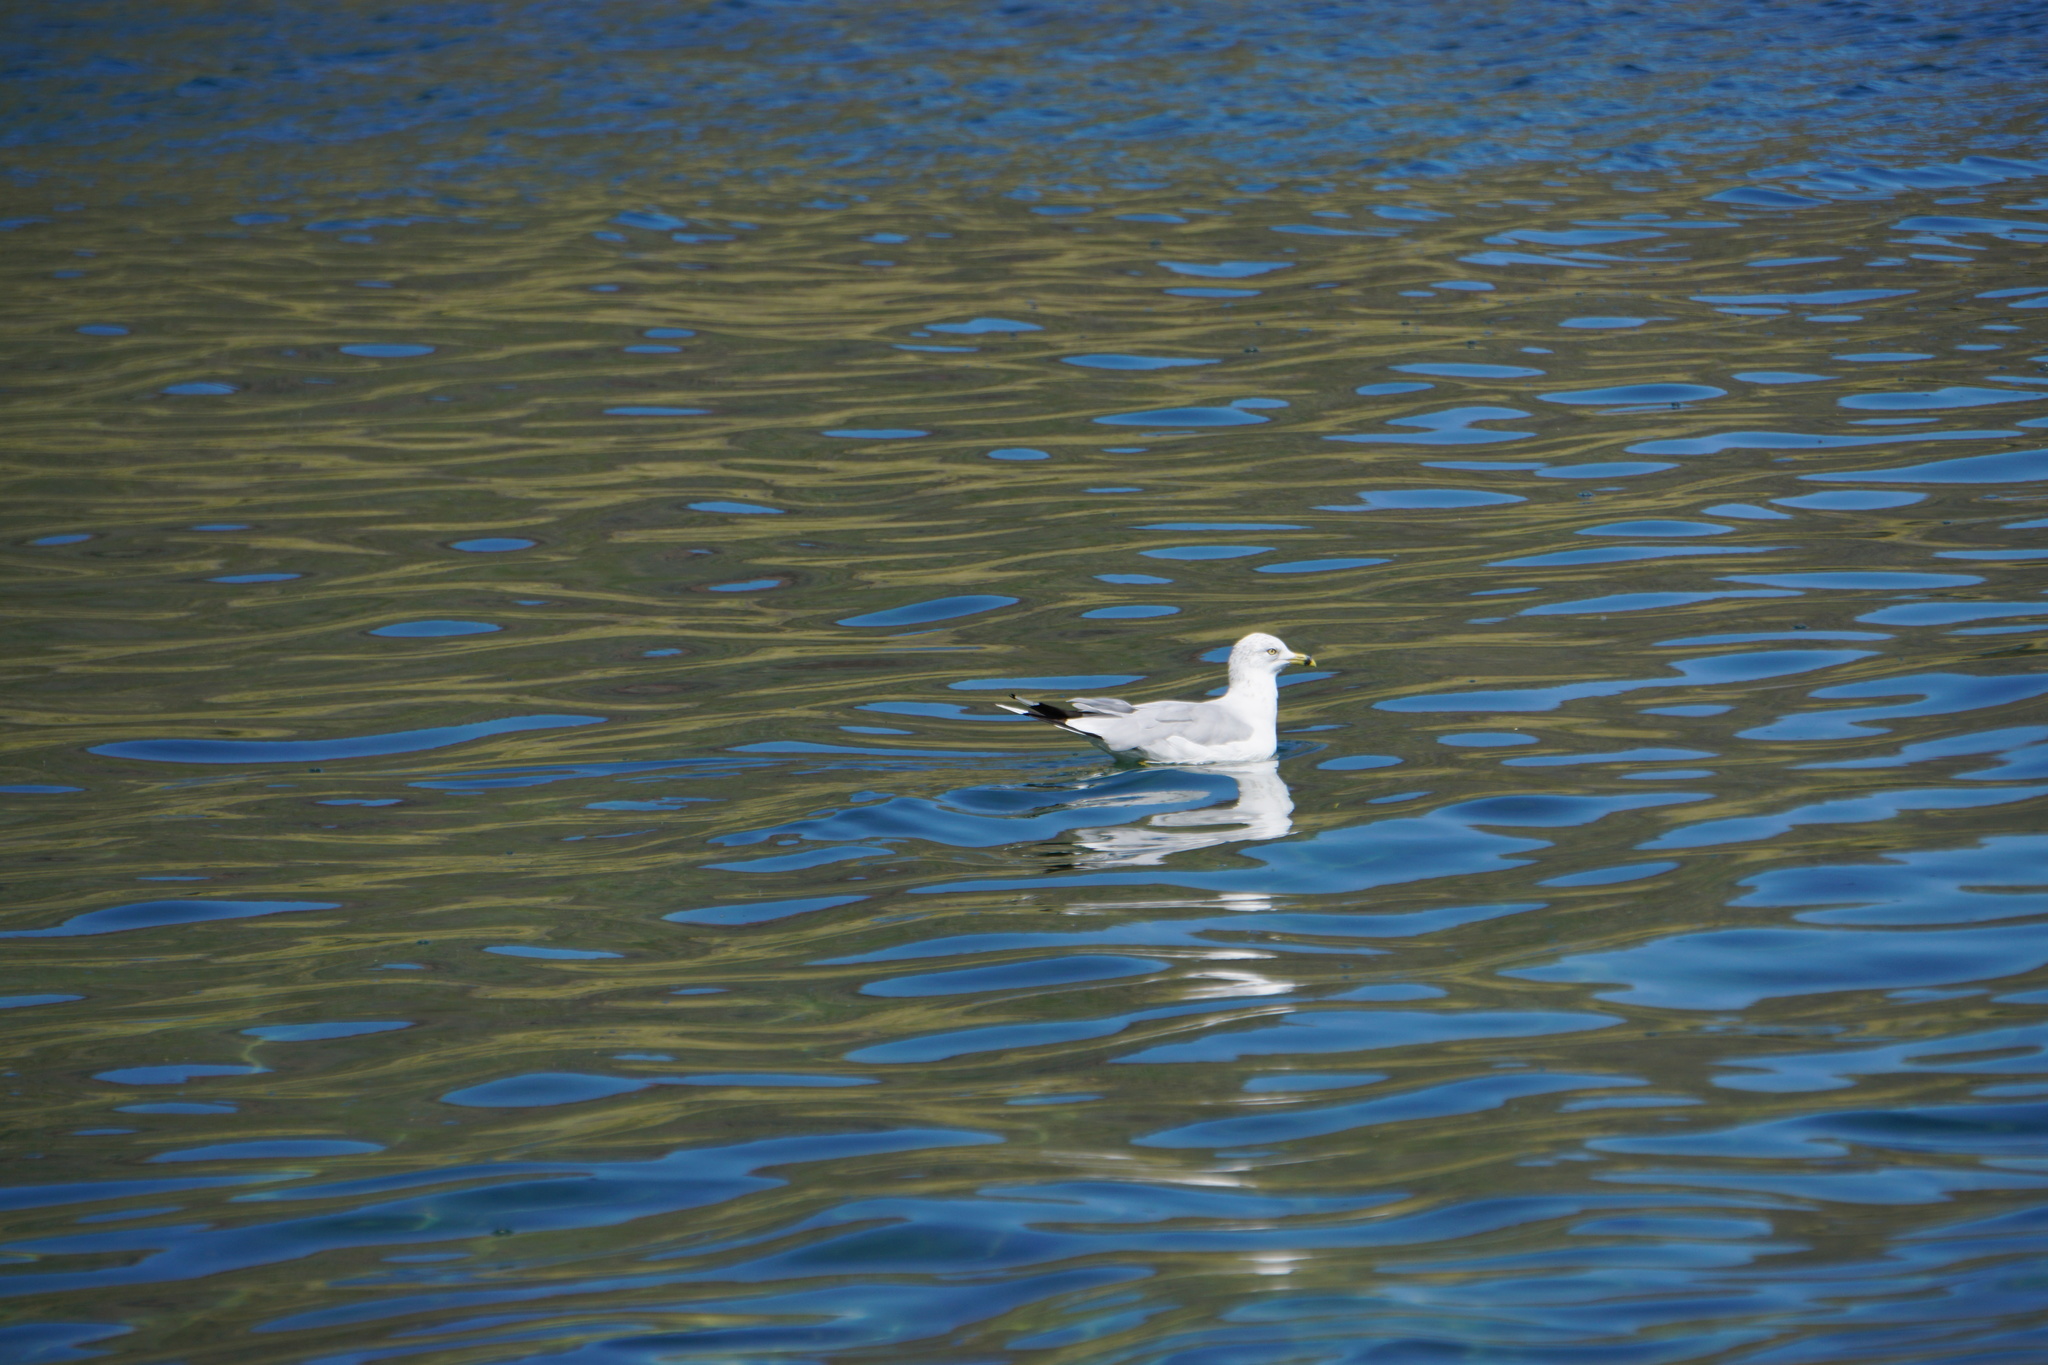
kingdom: Animalia
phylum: Chordata
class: Aves
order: Charadriiformes
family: Laridae
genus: Larus
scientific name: Larus delawarensis
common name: Ring-billed gull
